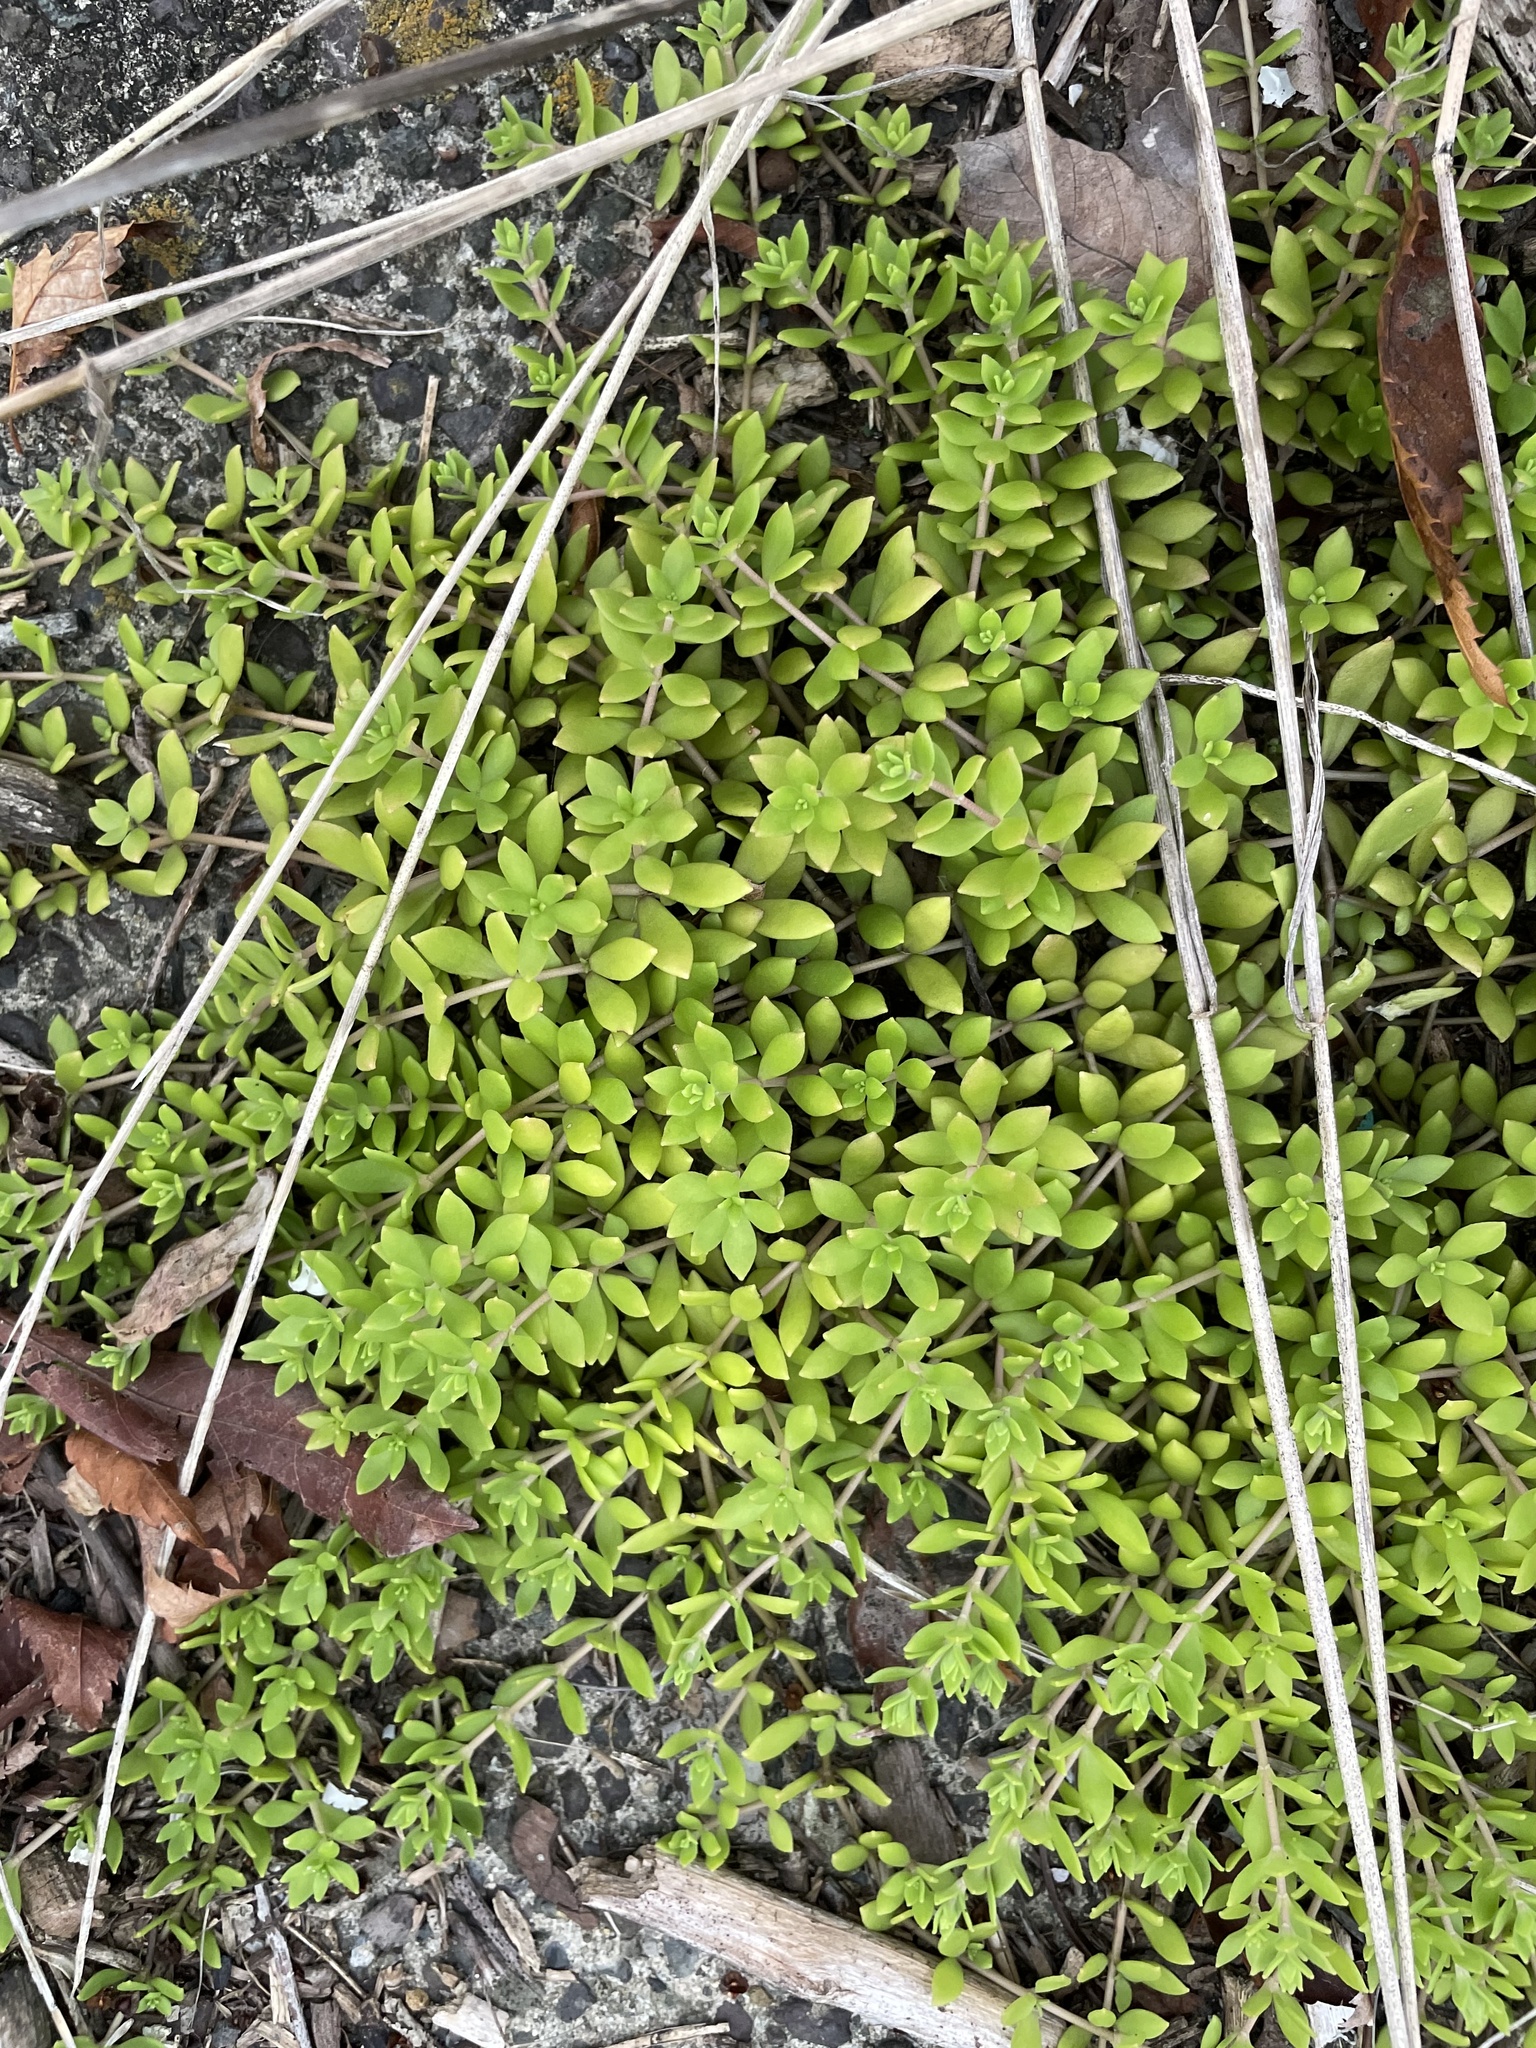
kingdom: Plantae
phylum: Tracheophyta
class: Magnoliopsida
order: Saxifragales
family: Crassulaceae
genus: Sedum
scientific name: Sedum sarmentosum
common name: Stringy stonecrop
